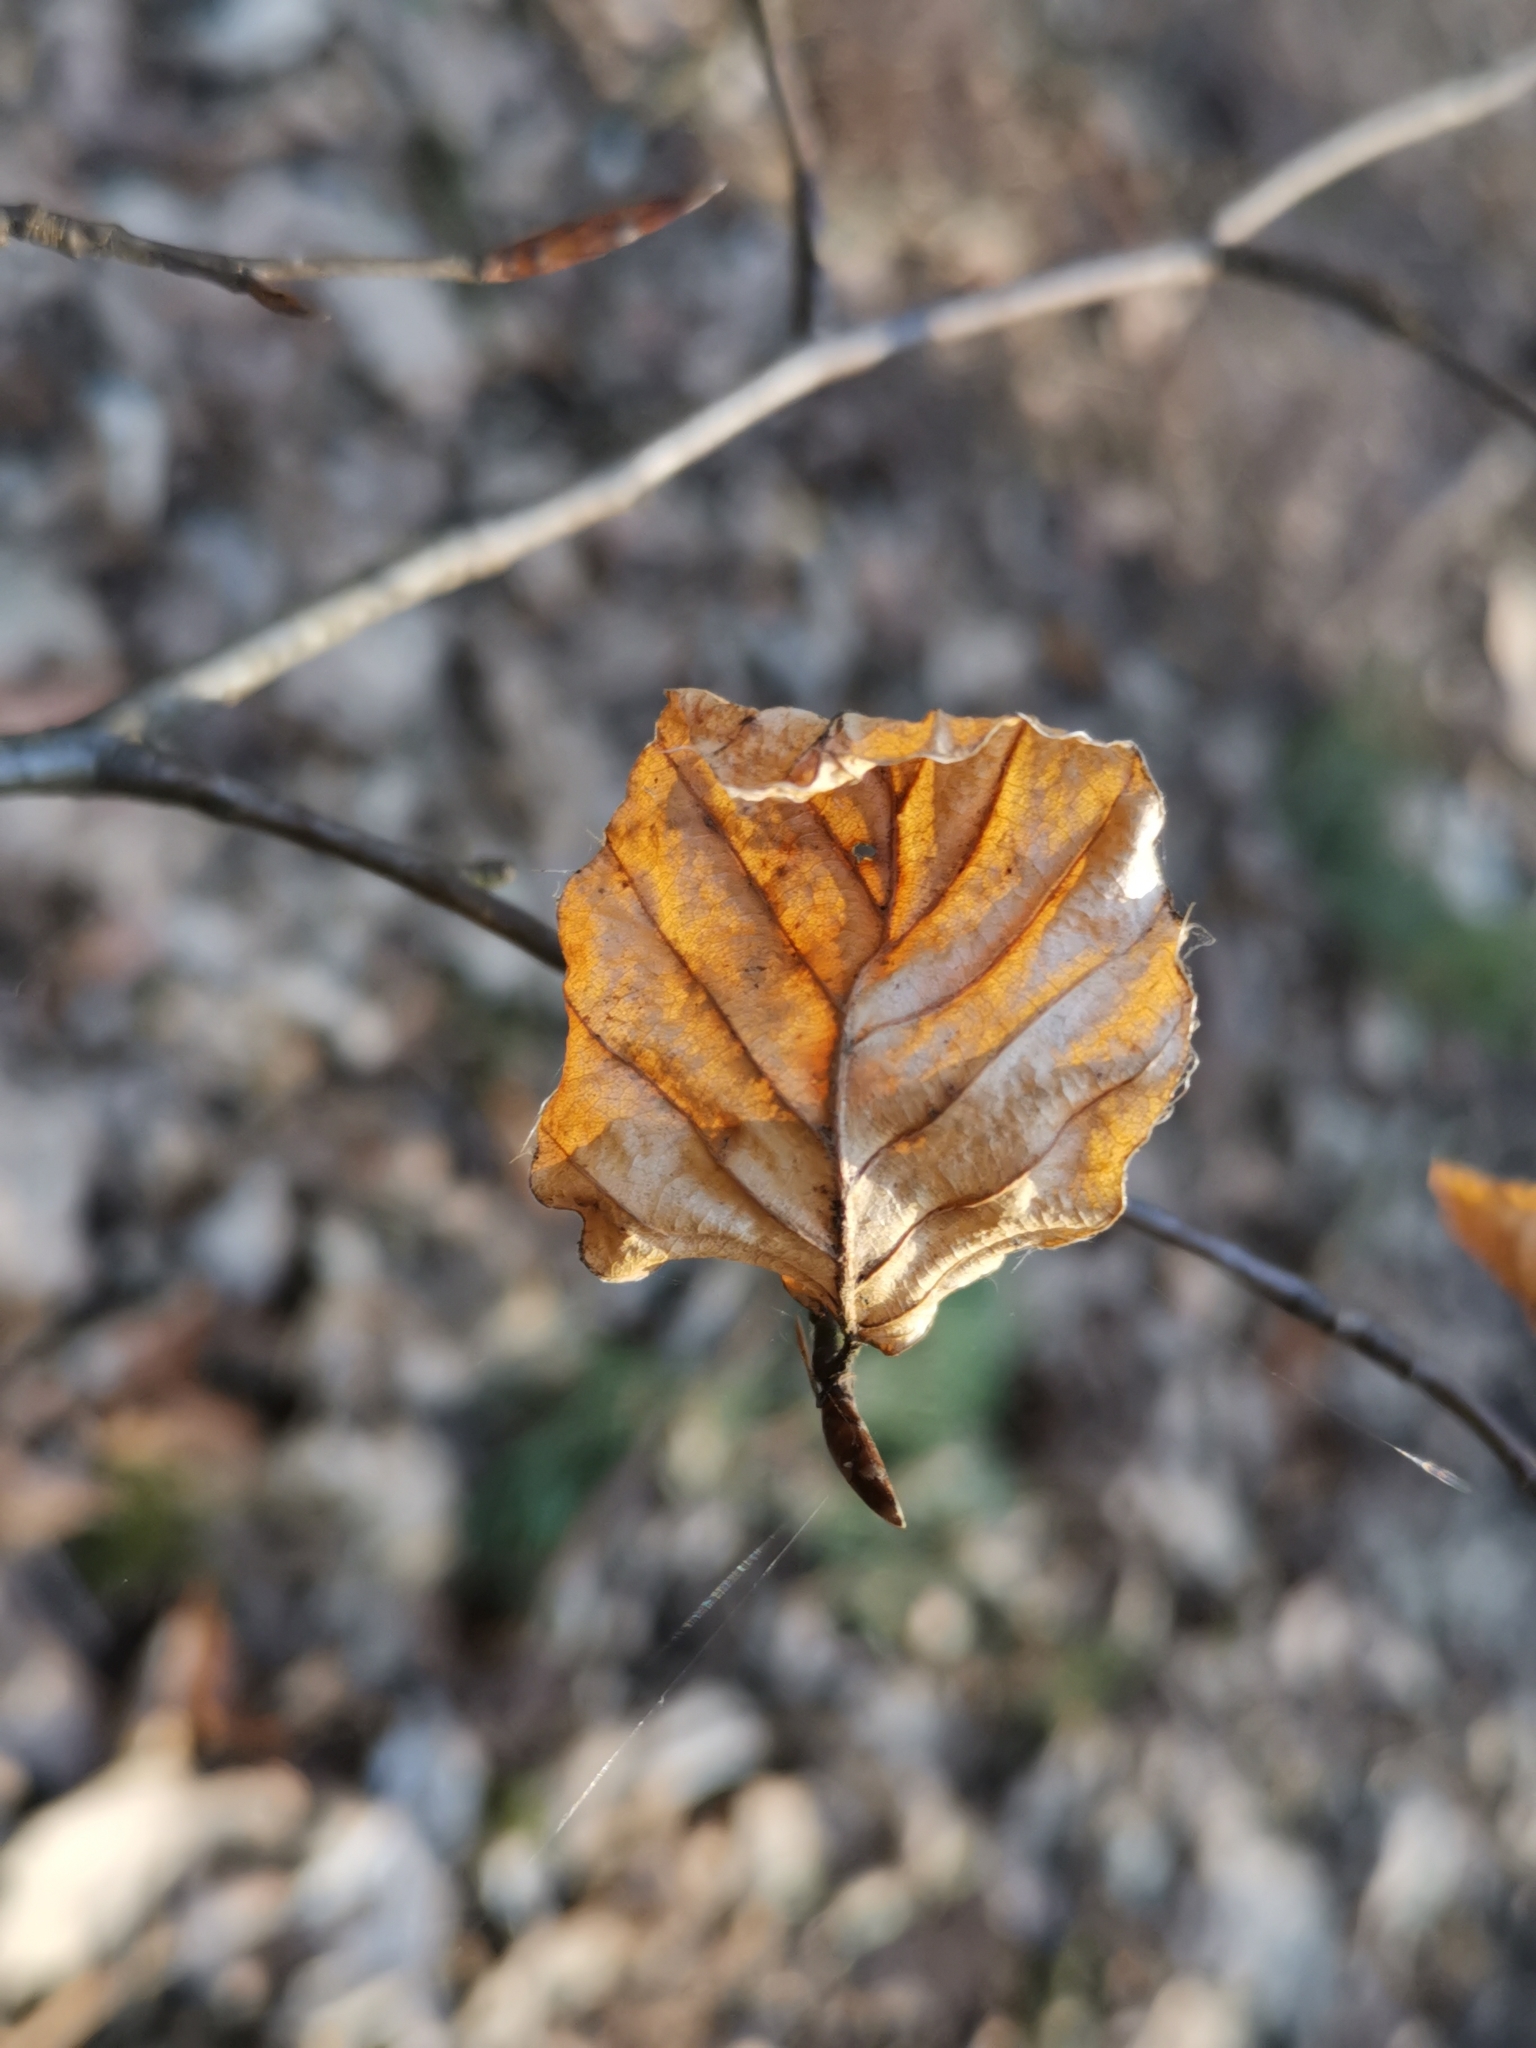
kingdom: Plantae
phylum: Tracheophyta
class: Magnoliopsida
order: Fagales
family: Fagaceae
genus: Fagus
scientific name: Fagus sylvatica
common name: Beech
